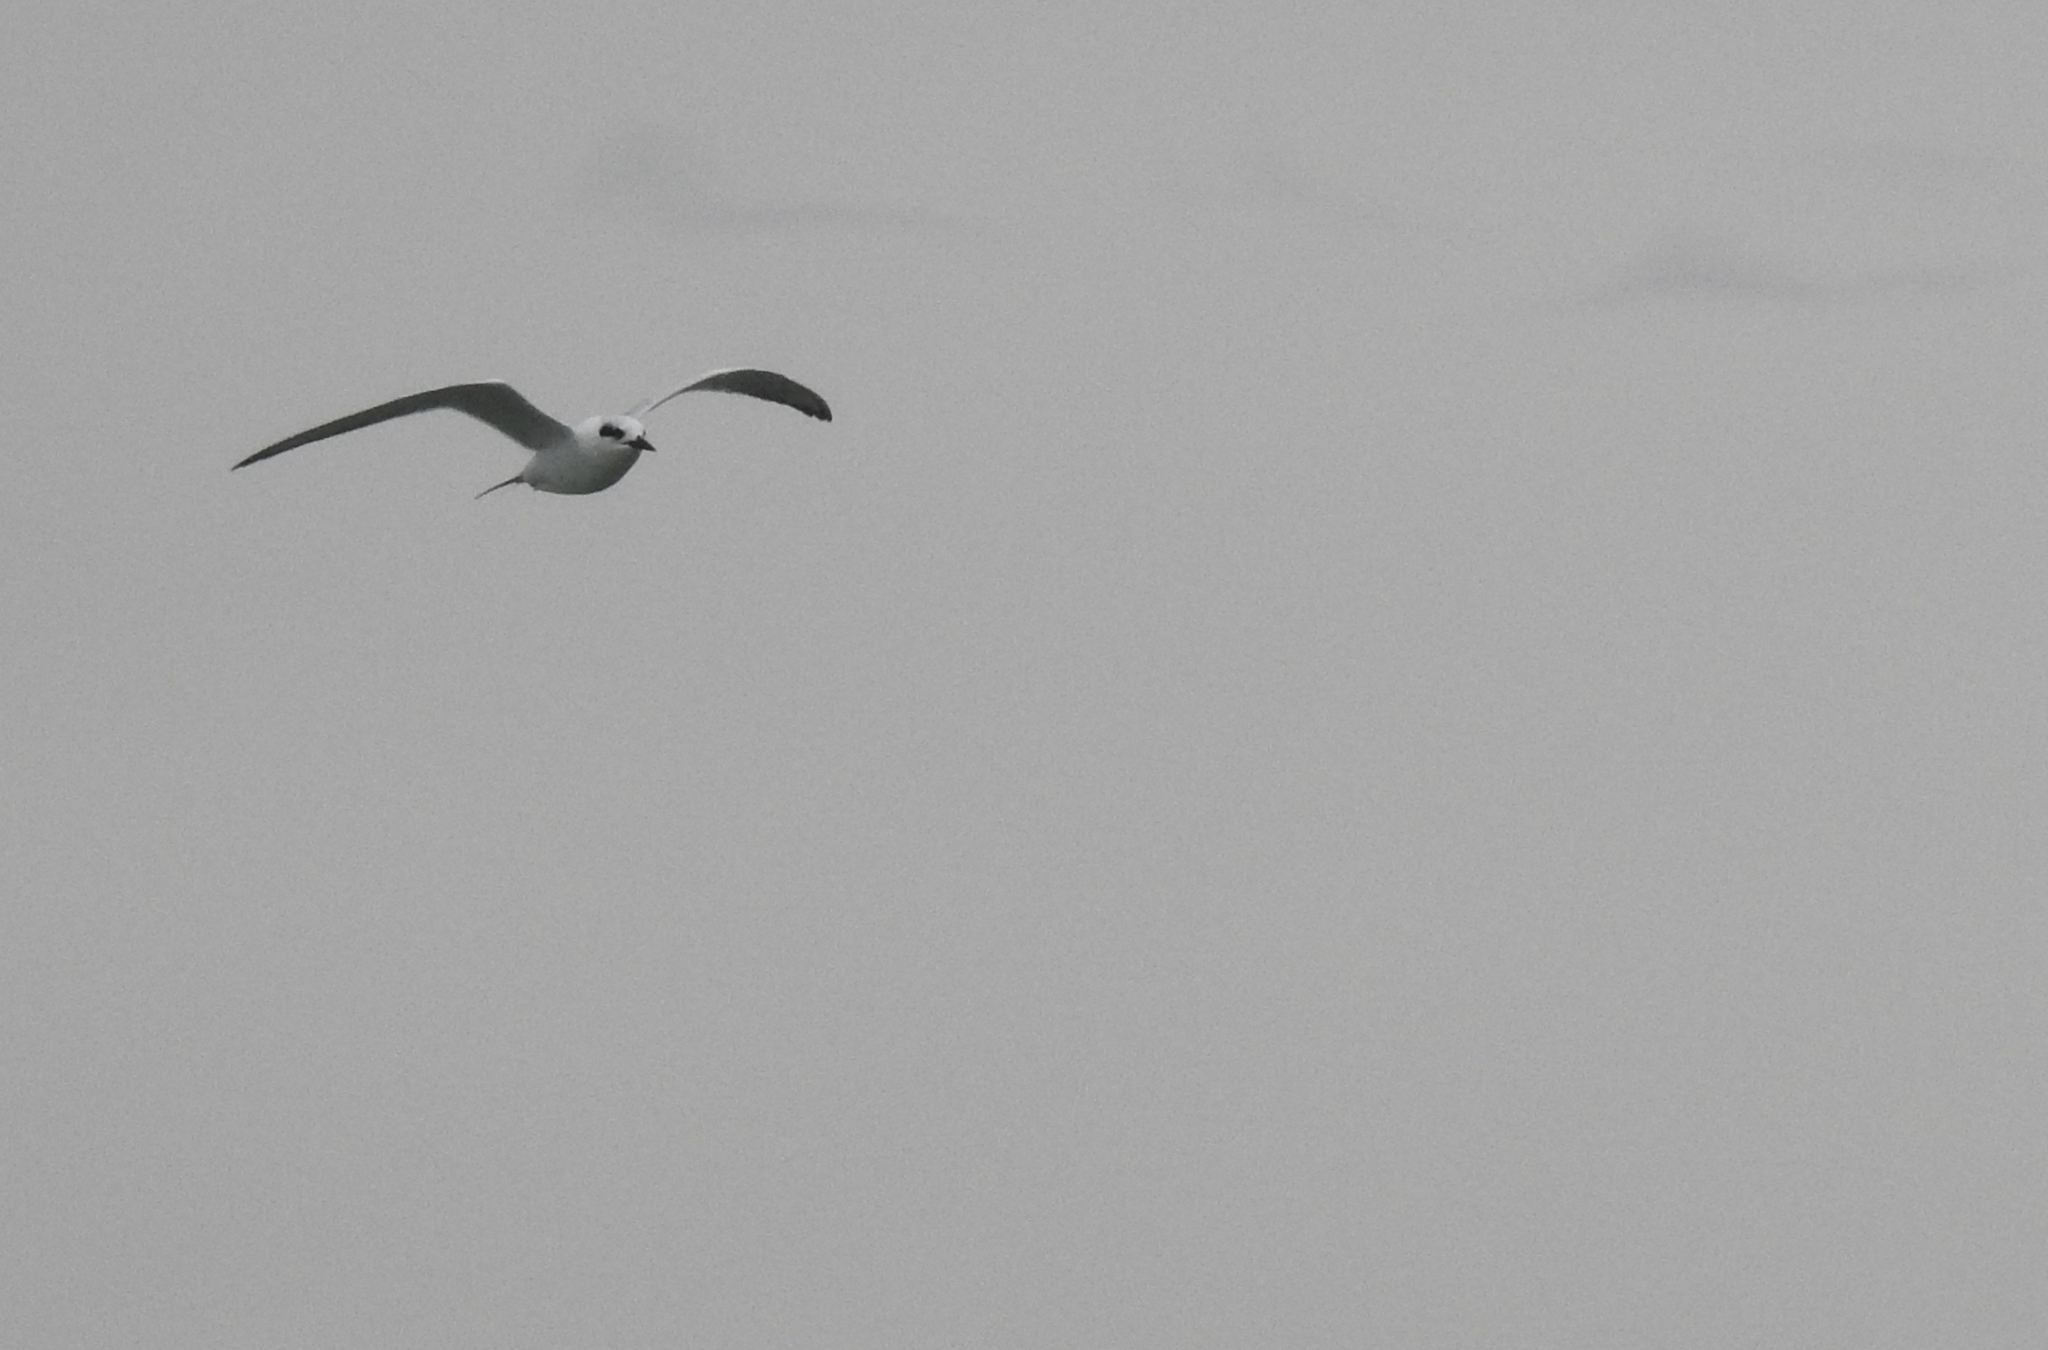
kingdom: Animalia
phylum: Chordata
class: Aves
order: Charadriiformes
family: Laridae
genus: Sterna
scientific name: Sterna forsteri
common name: Forster's tern
